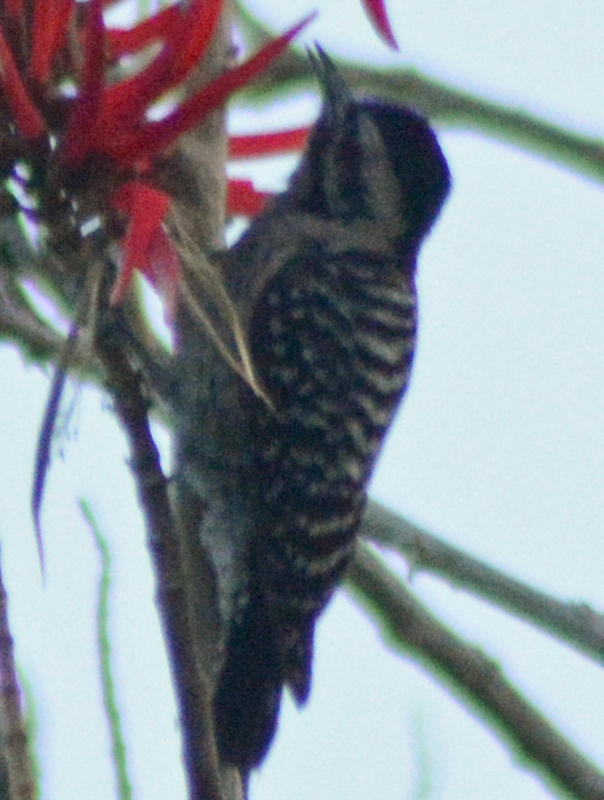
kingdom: Animalia
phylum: Chordata
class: Aves
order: Piciformes
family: Picidae
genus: Dryobates
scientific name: Dryobates scalaris
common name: Ladder-backed woodpecker
